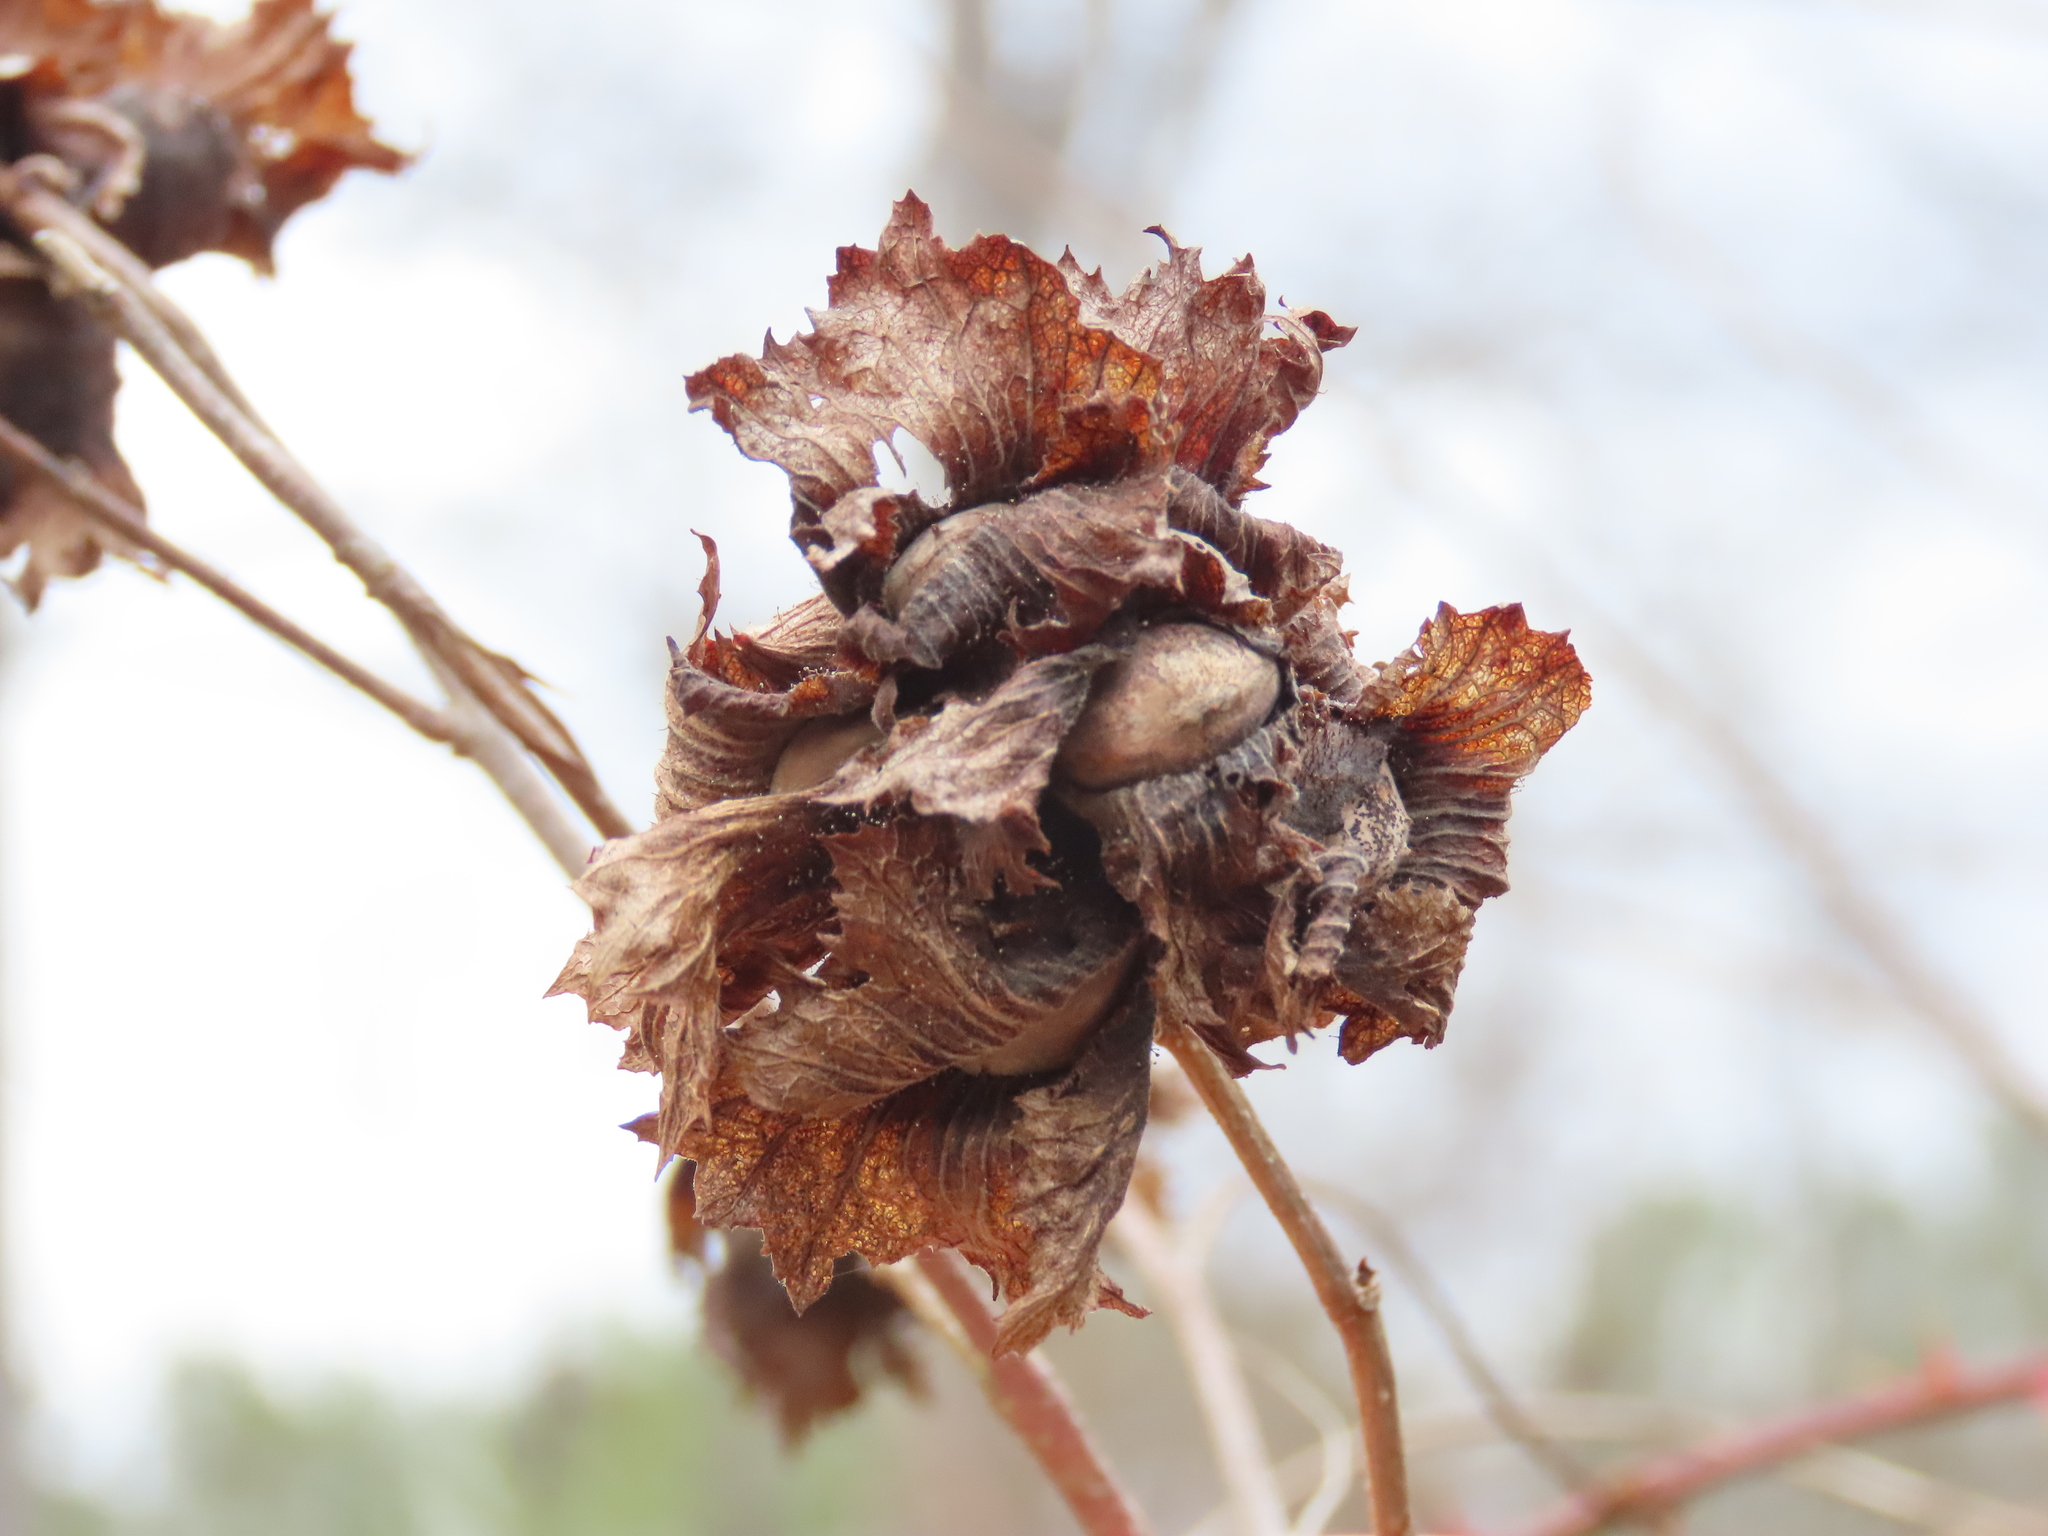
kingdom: Plantae
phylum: Tracheophyta
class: Magnoliopsida
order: Fagales
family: Betulaceae
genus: Corylus
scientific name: Corylus americana
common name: American hazel
